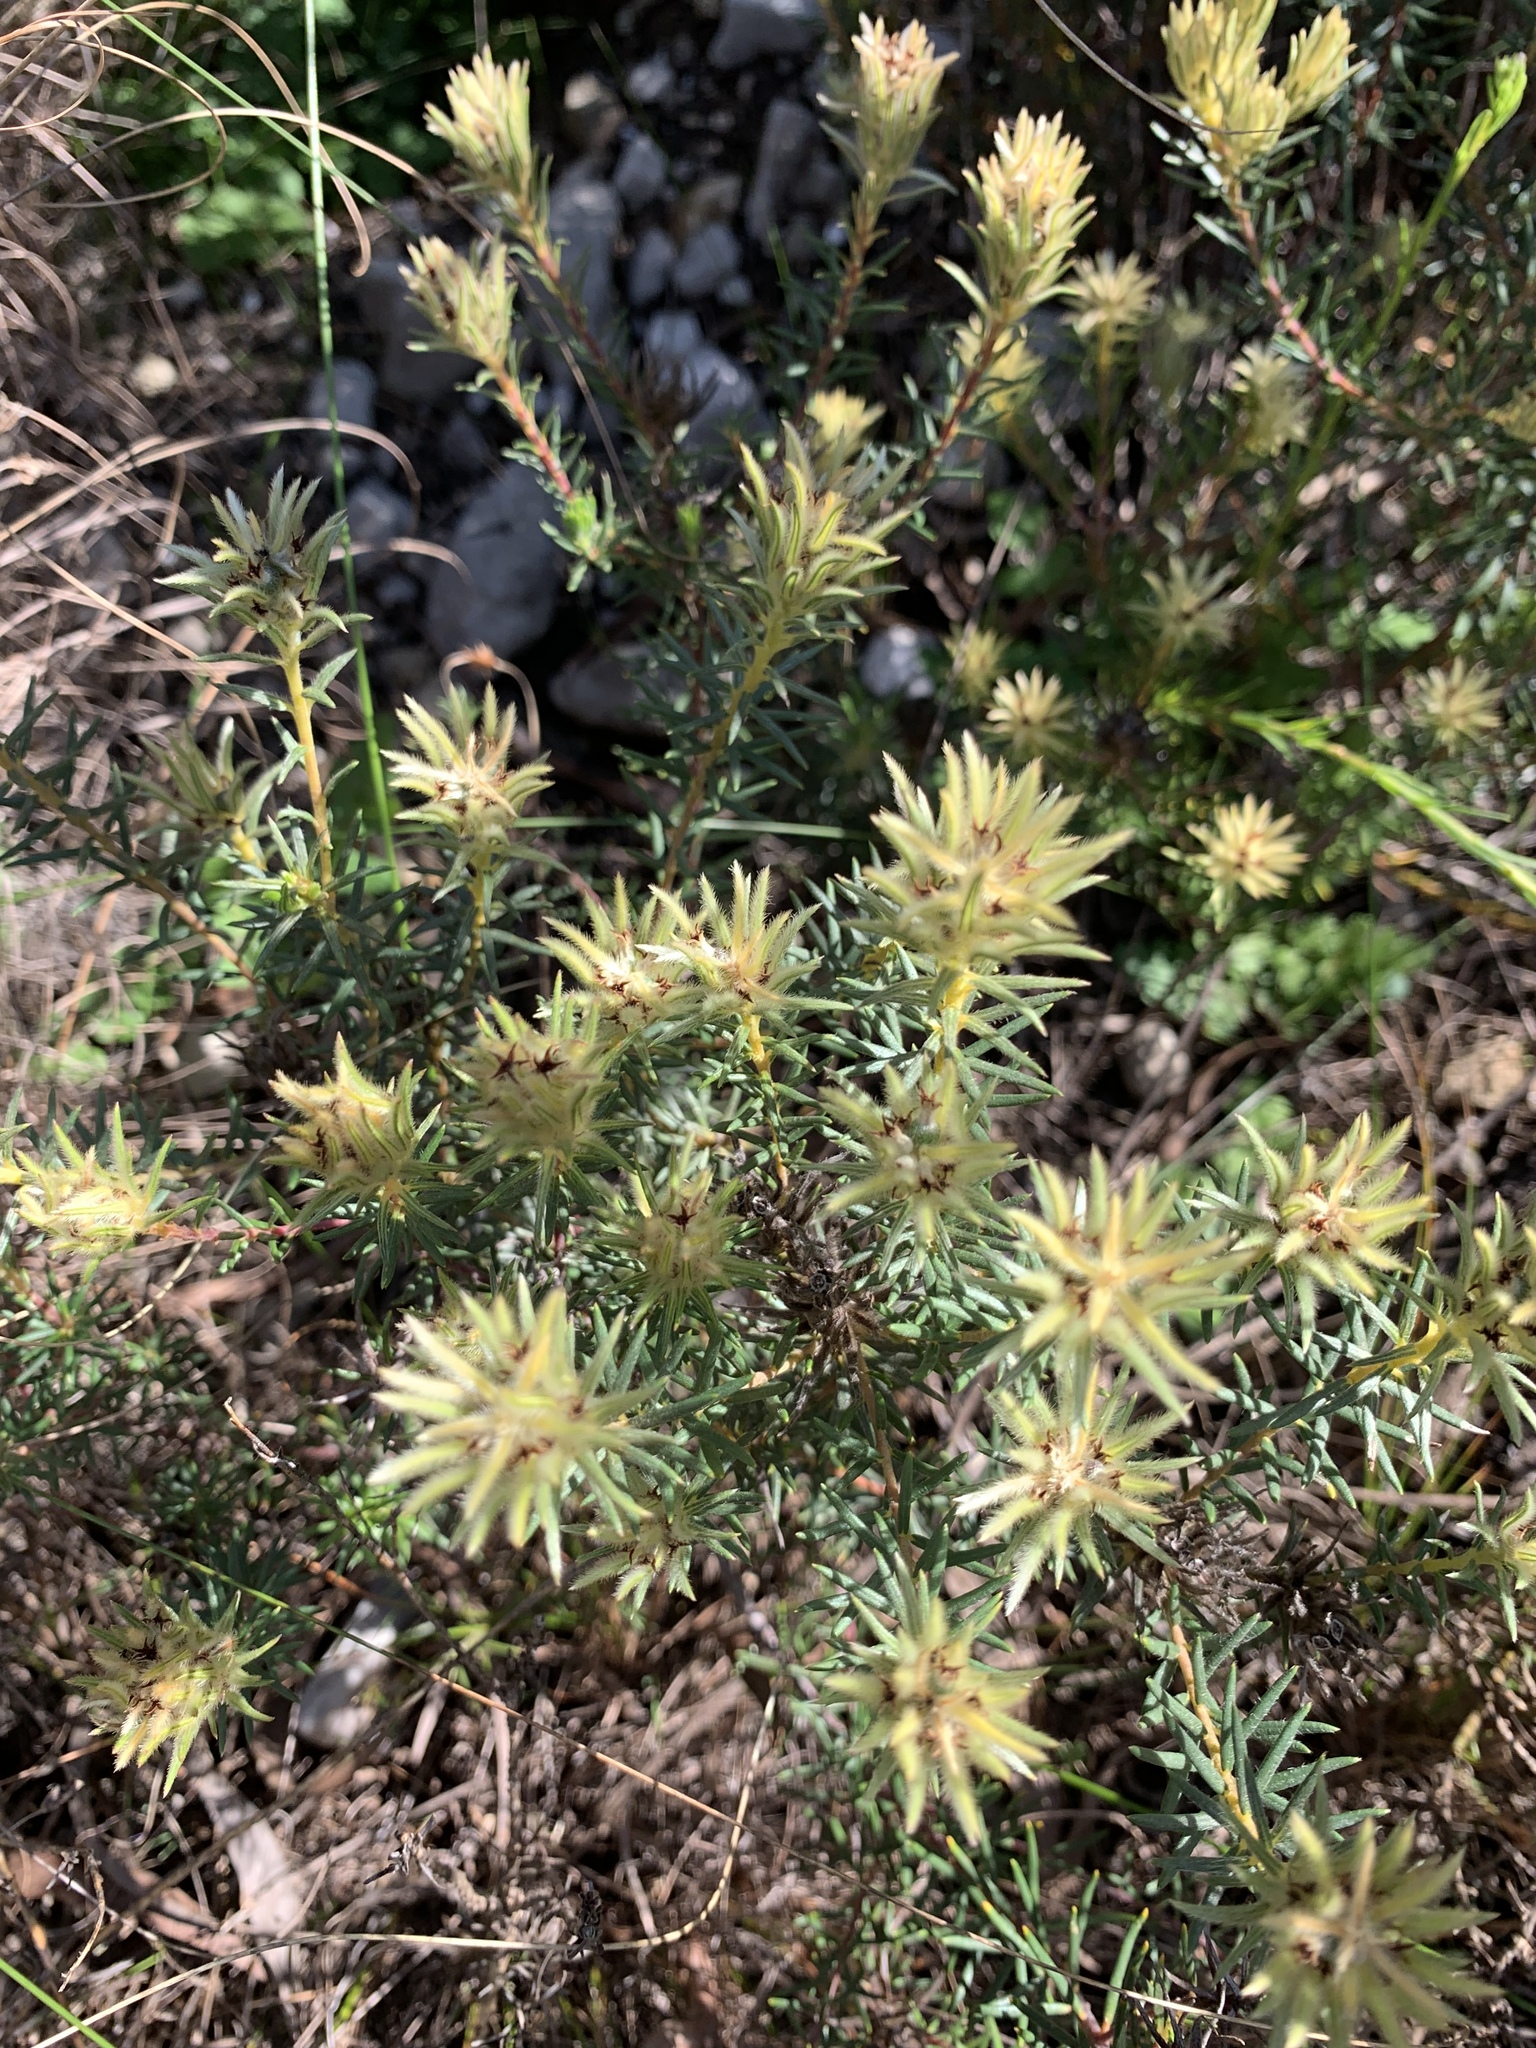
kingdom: Plantae
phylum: Tracheophyta
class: Magnoliopsida
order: Rosales
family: Rhamnaceae
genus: Phylica
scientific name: Phylica plumosa
